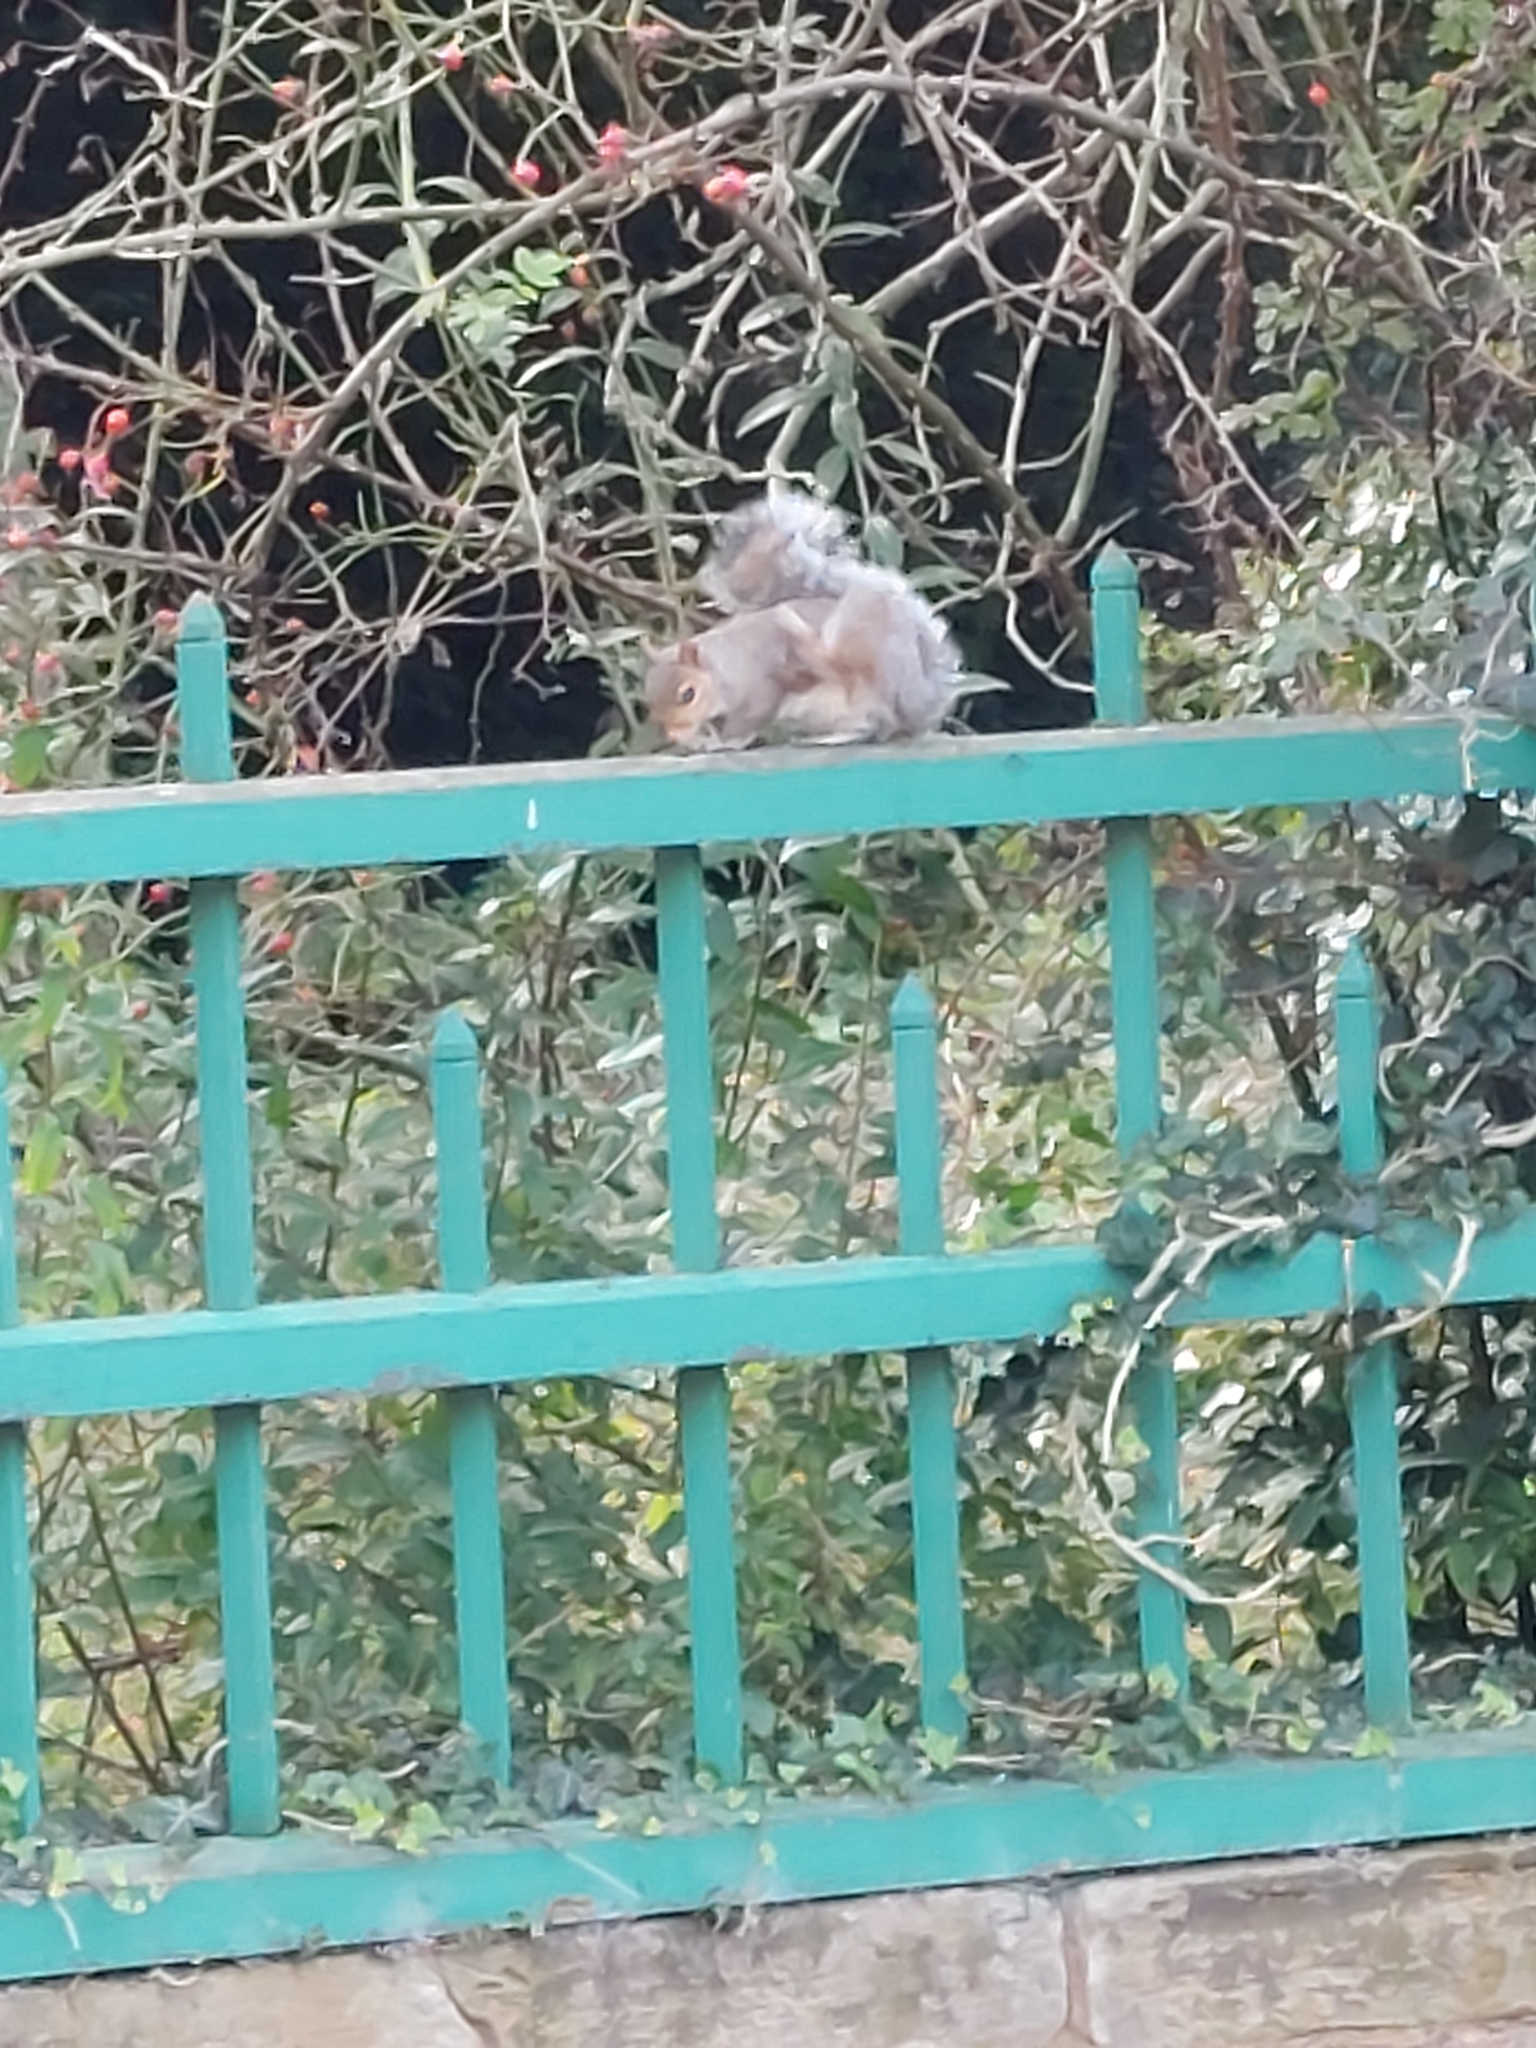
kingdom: Animalia
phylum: Chordata
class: Mammalia
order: Rodentia
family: Sciuridae
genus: Sciurus
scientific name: Sciurus carolinensis
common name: Eastern gray squirrel
